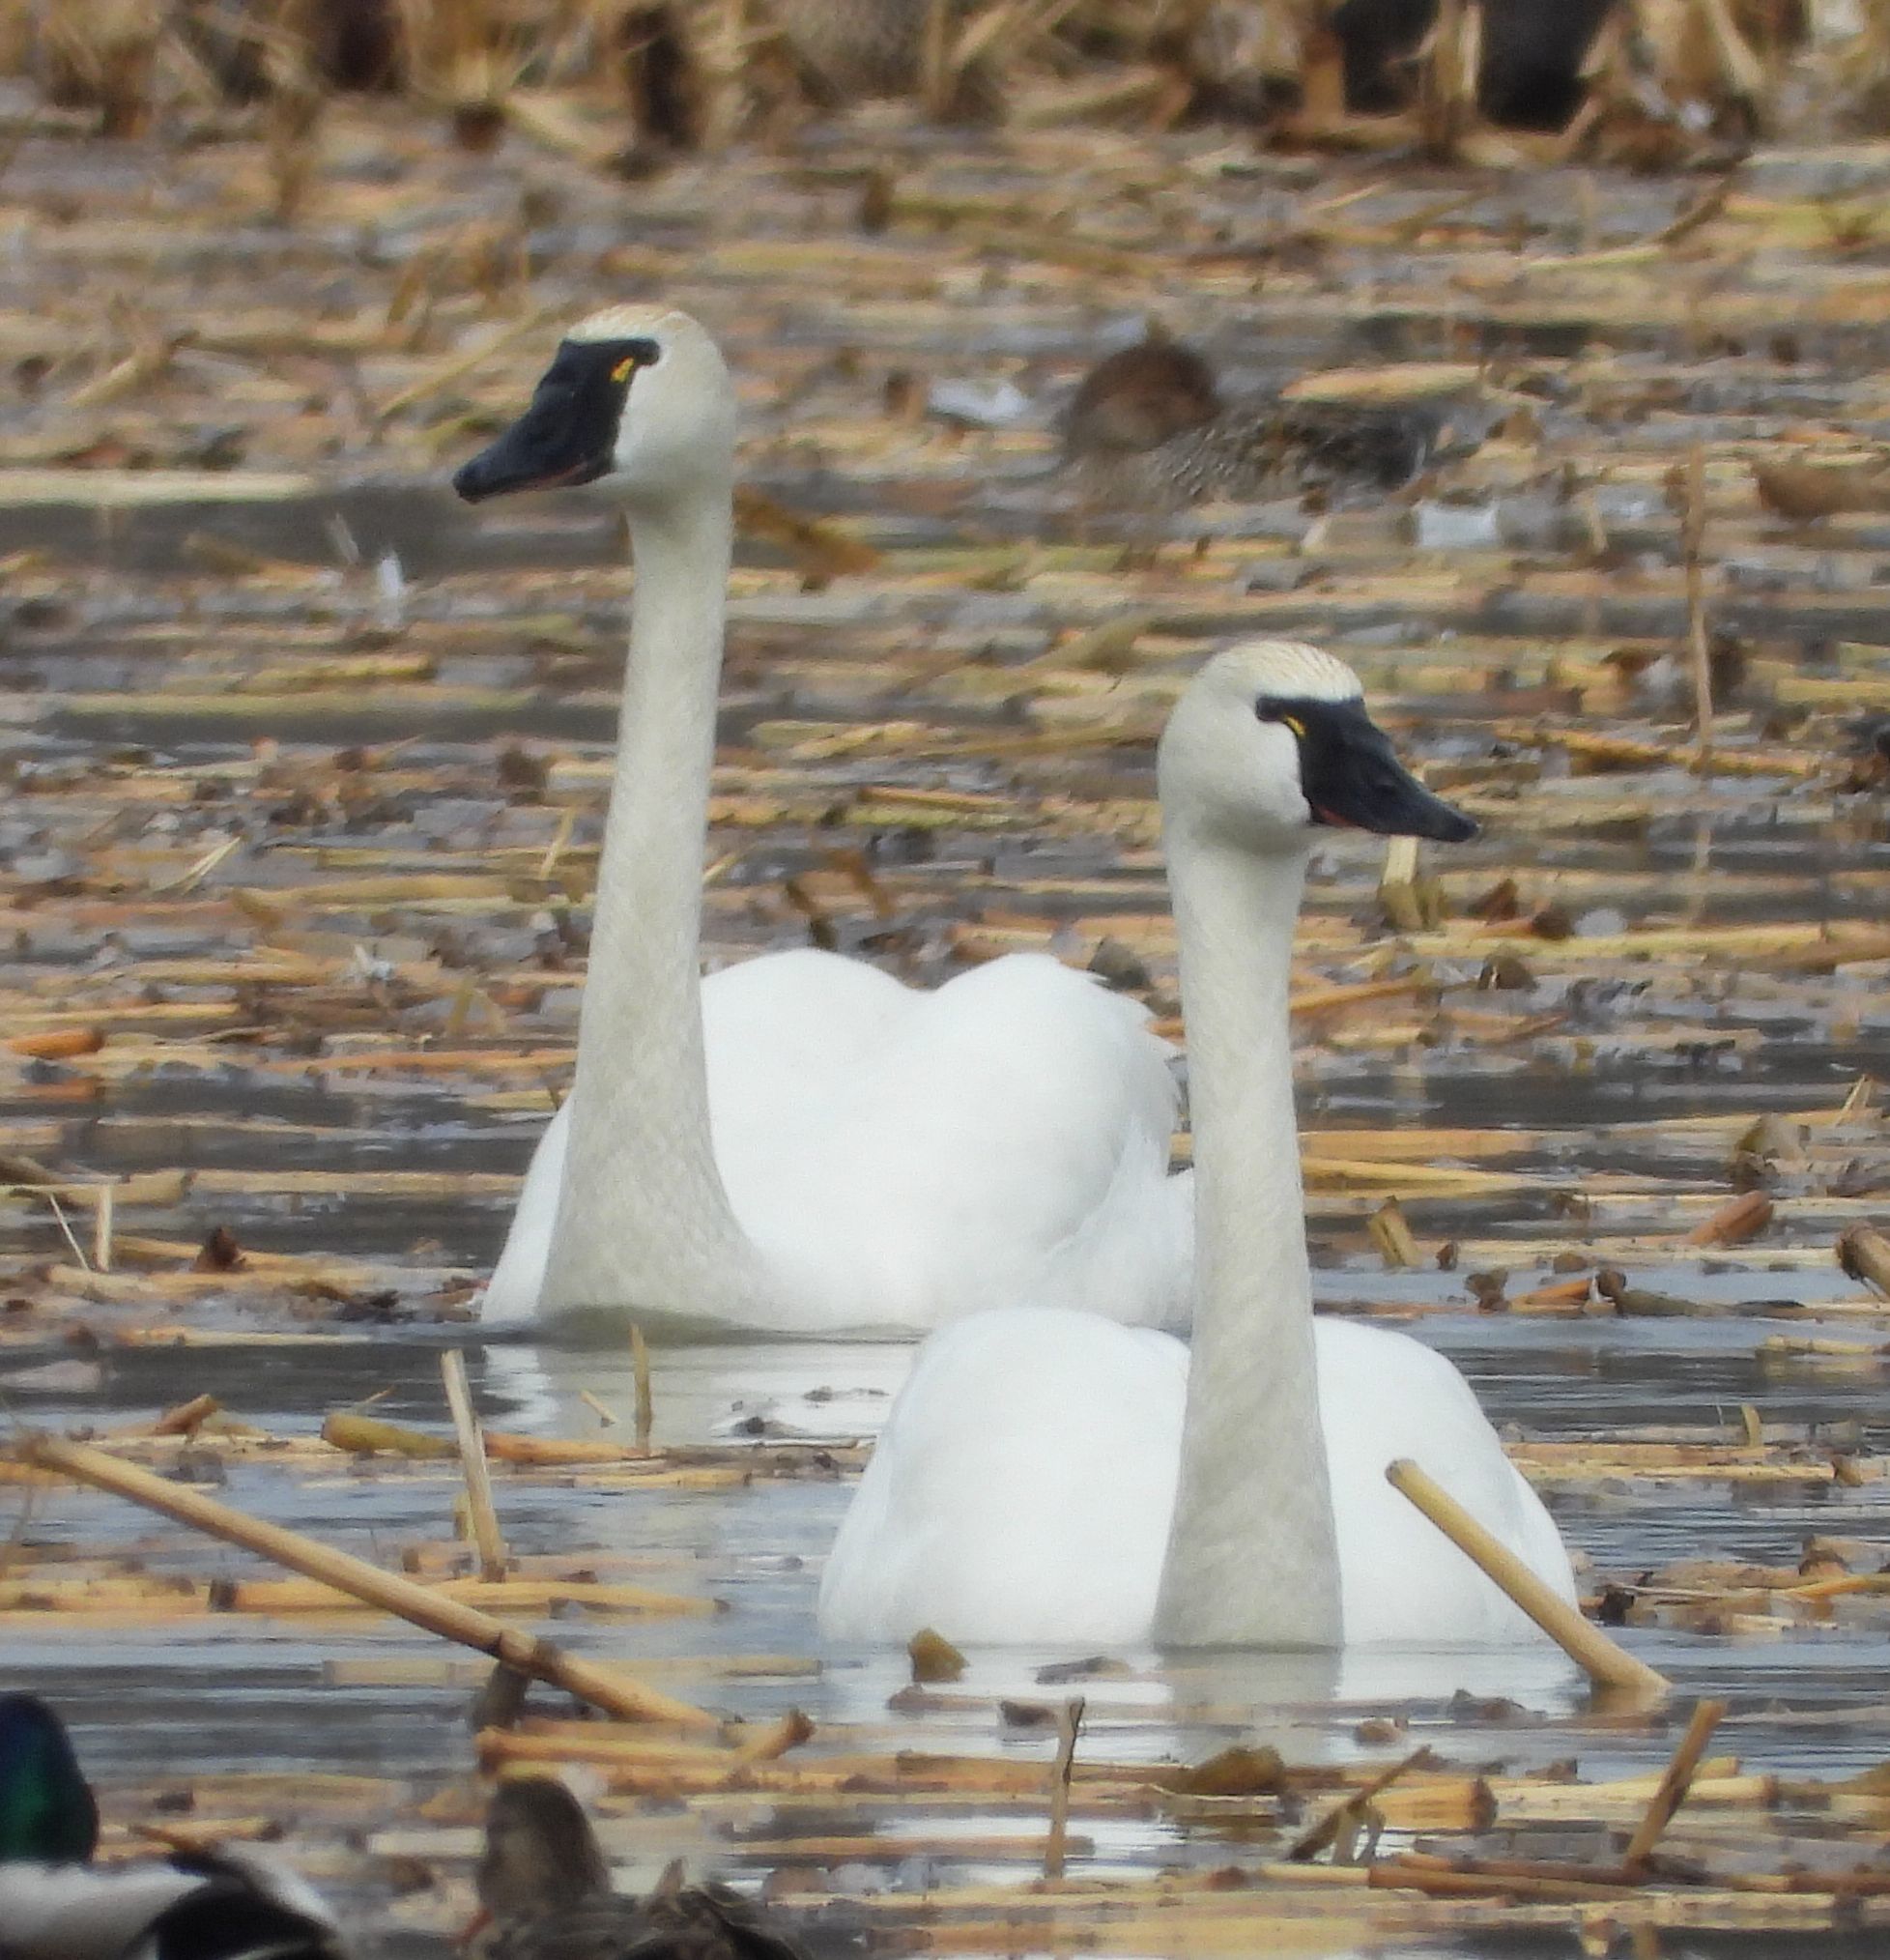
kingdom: Animalia
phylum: Chordata
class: Aves
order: Anseriformes
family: Anatidae
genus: Cygnus
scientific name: Cygnus columbianus
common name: Tundra swan
